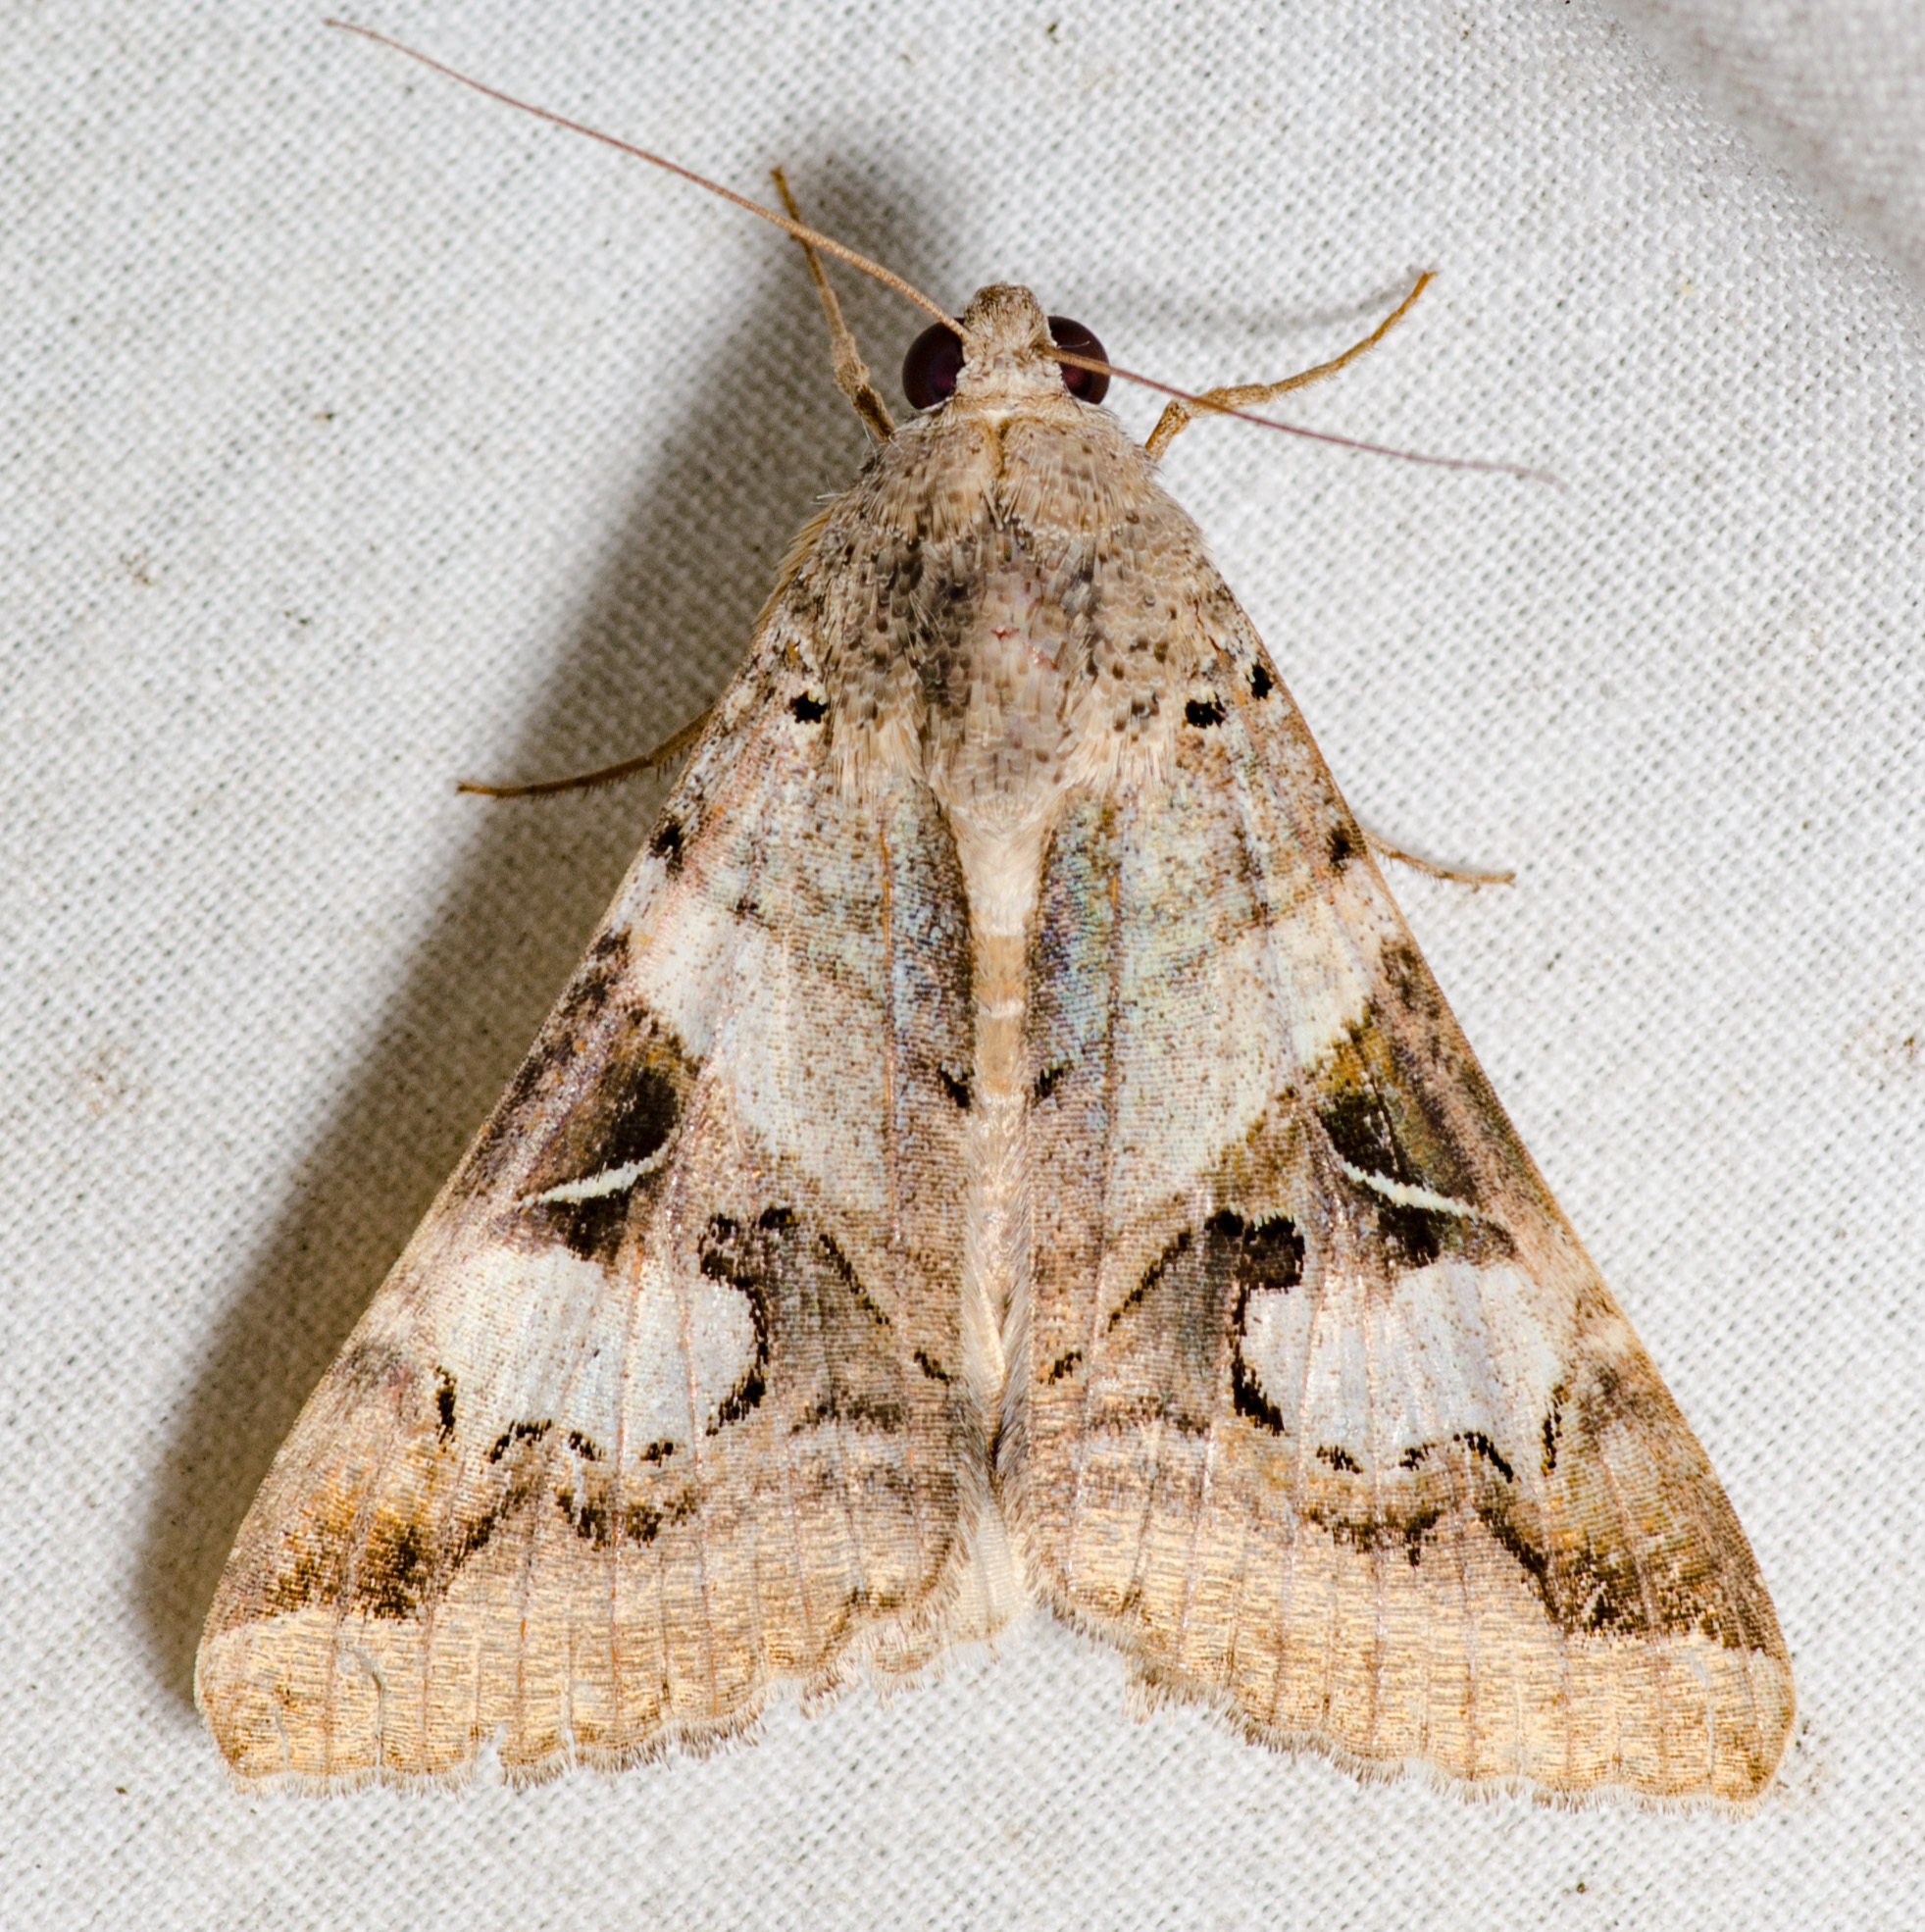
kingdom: Animalia
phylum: Arthropoda
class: Insecta
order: Lepidoptera
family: Erebidae
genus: Melipotis
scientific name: Melipotis indomita
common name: Moth
